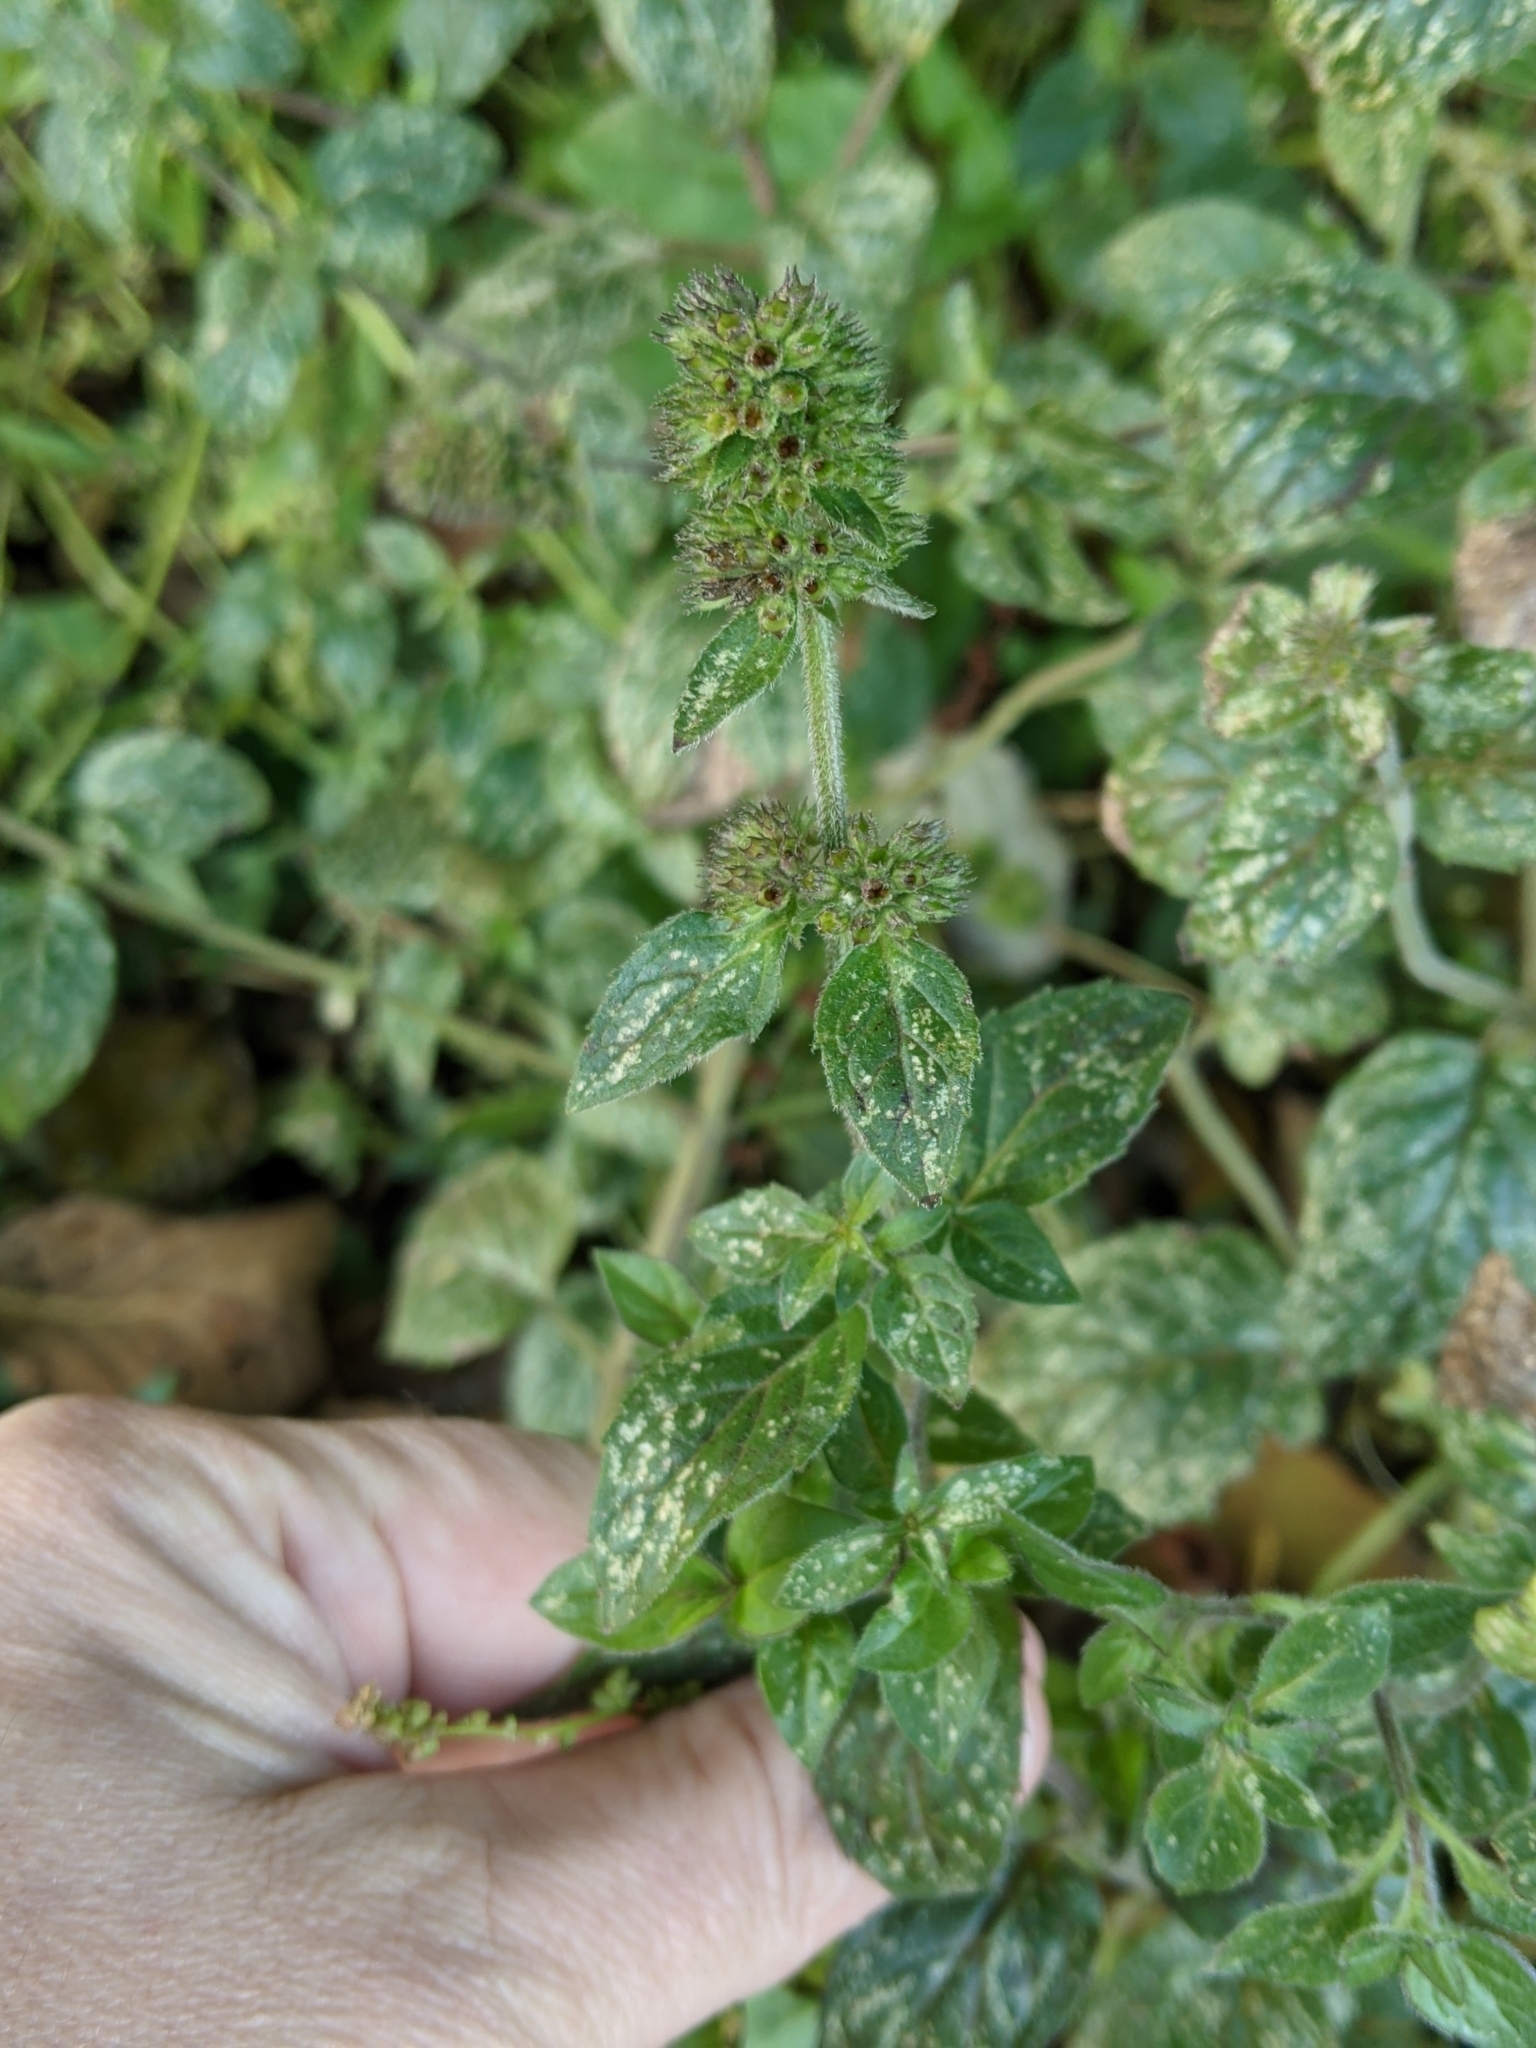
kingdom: Plantae
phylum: Tracheophyta
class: Magnoliopsida
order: Lamiales
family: Lamiaceae
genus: Mentha
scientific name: Mentha aquatica
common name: Water mint
